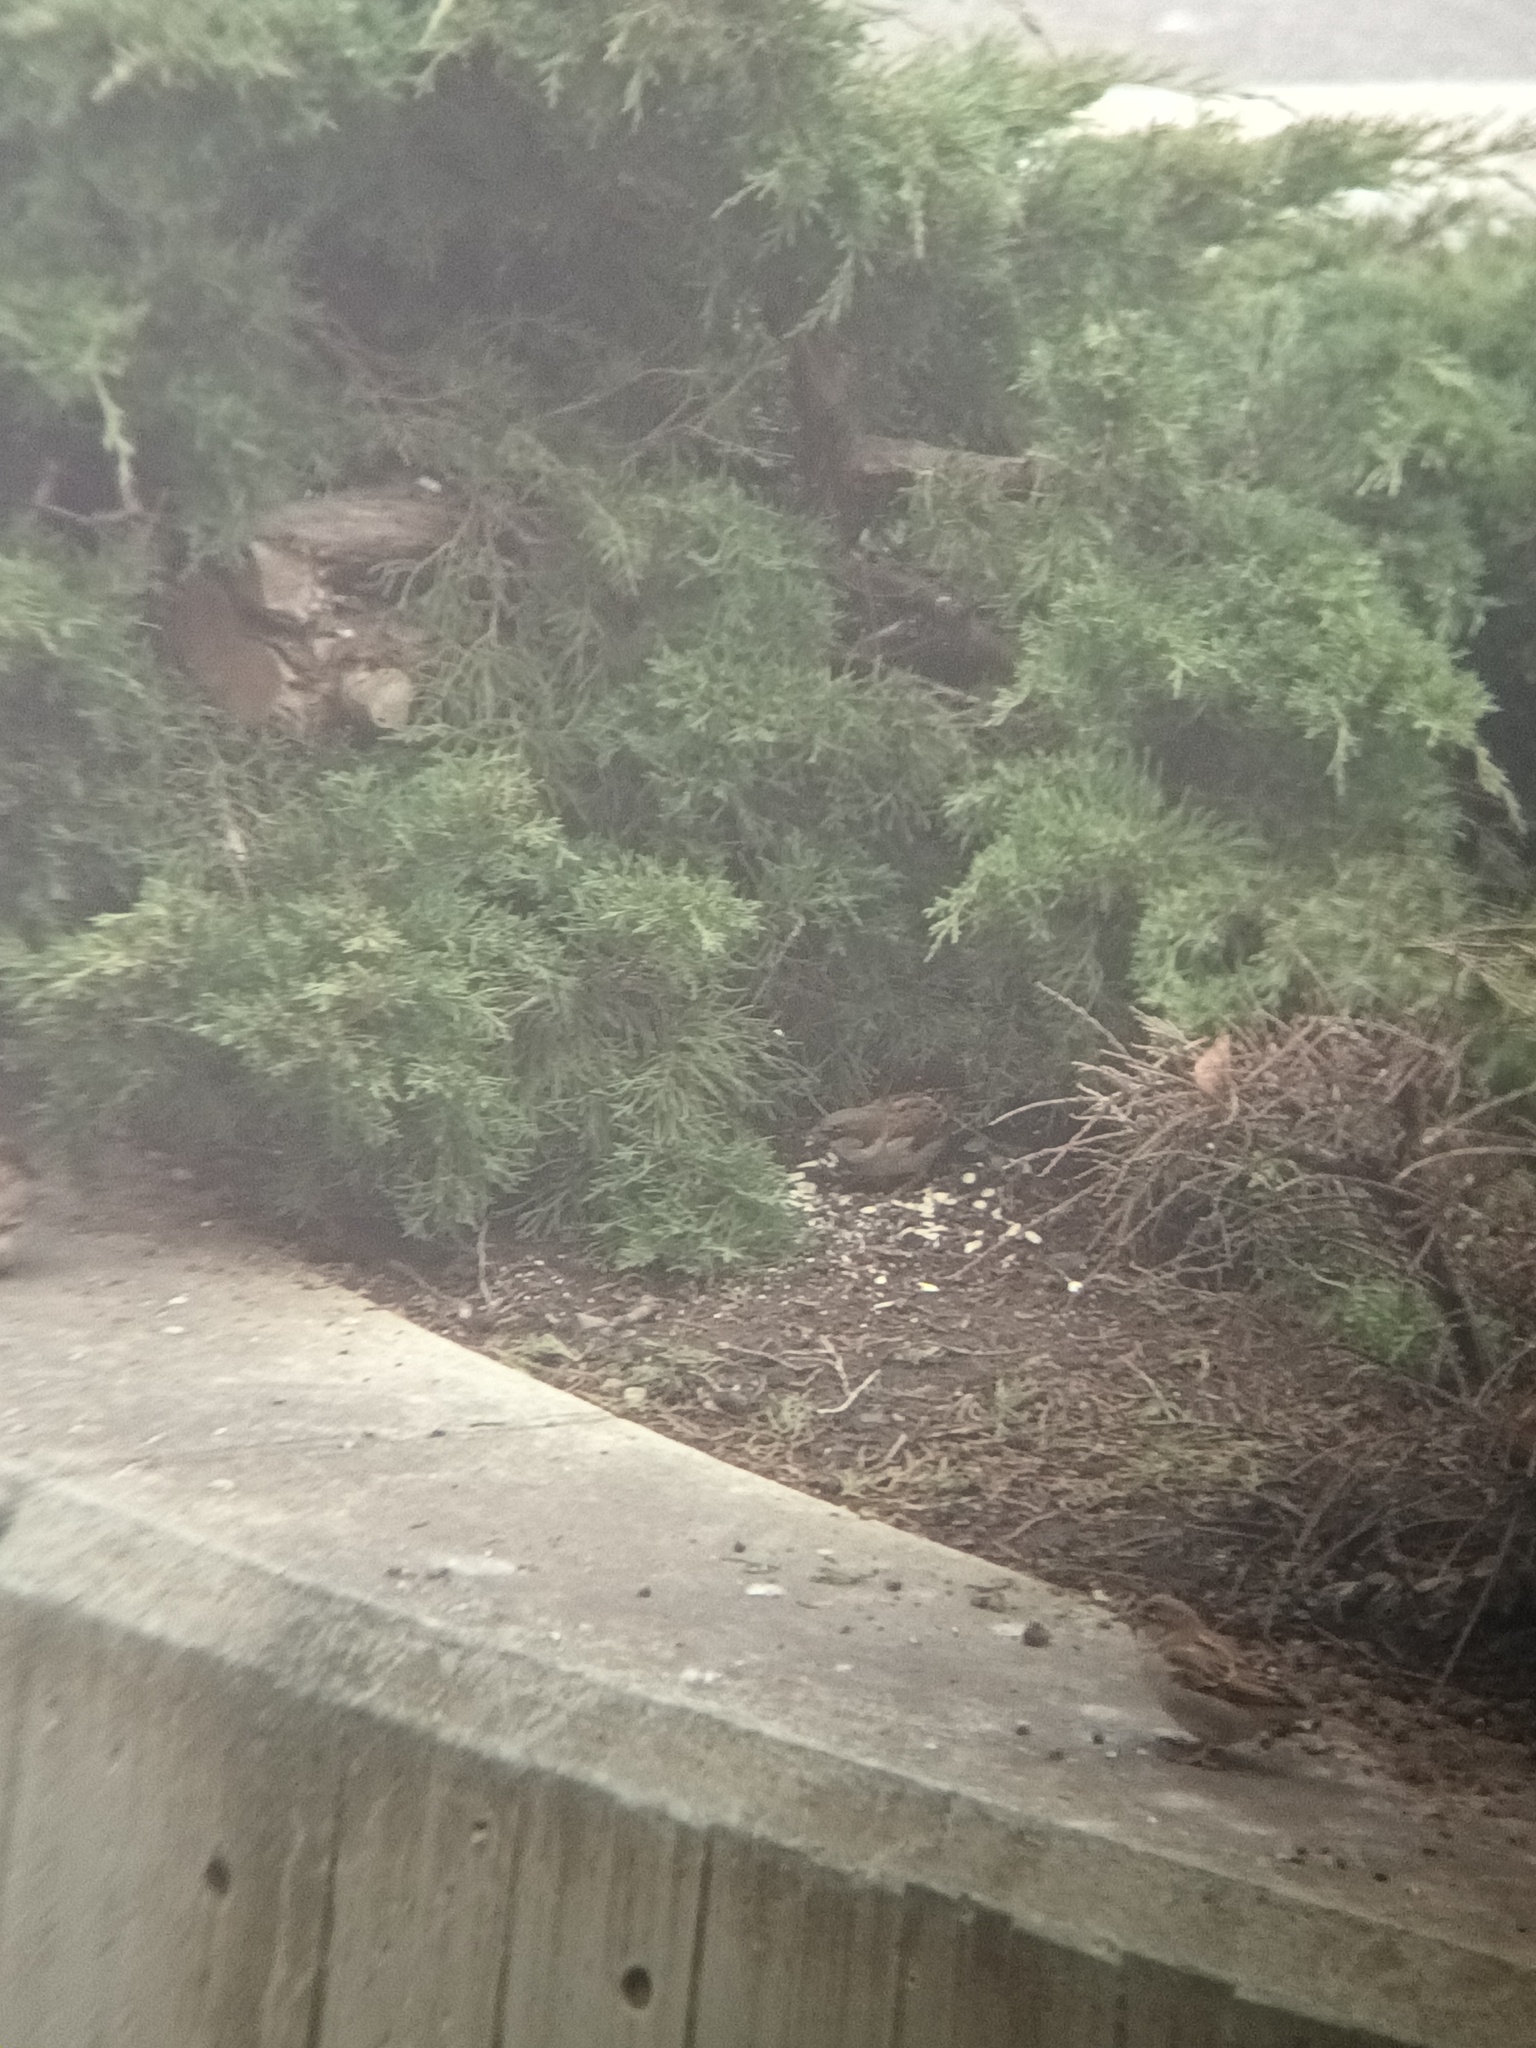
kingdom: Animalia
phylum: Chordata
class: Aves
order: Passeriformes
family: Passeridae
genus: Passer
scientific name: Passer domesticus
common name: House sparrow
